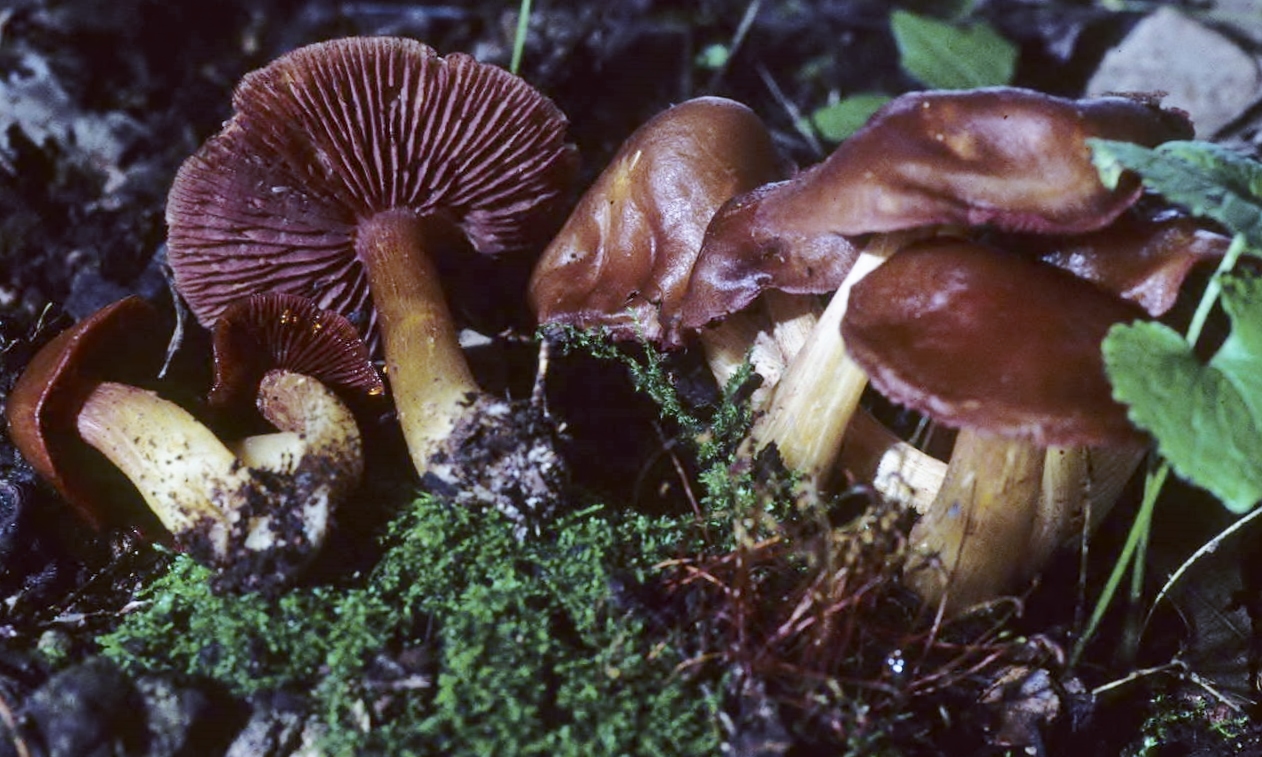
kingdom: Fungi
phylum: Basidiomycota
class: Agaricomycetes
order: Agaricales
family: Mycenaceae
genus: Mycena
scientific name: Mycena denticulata
